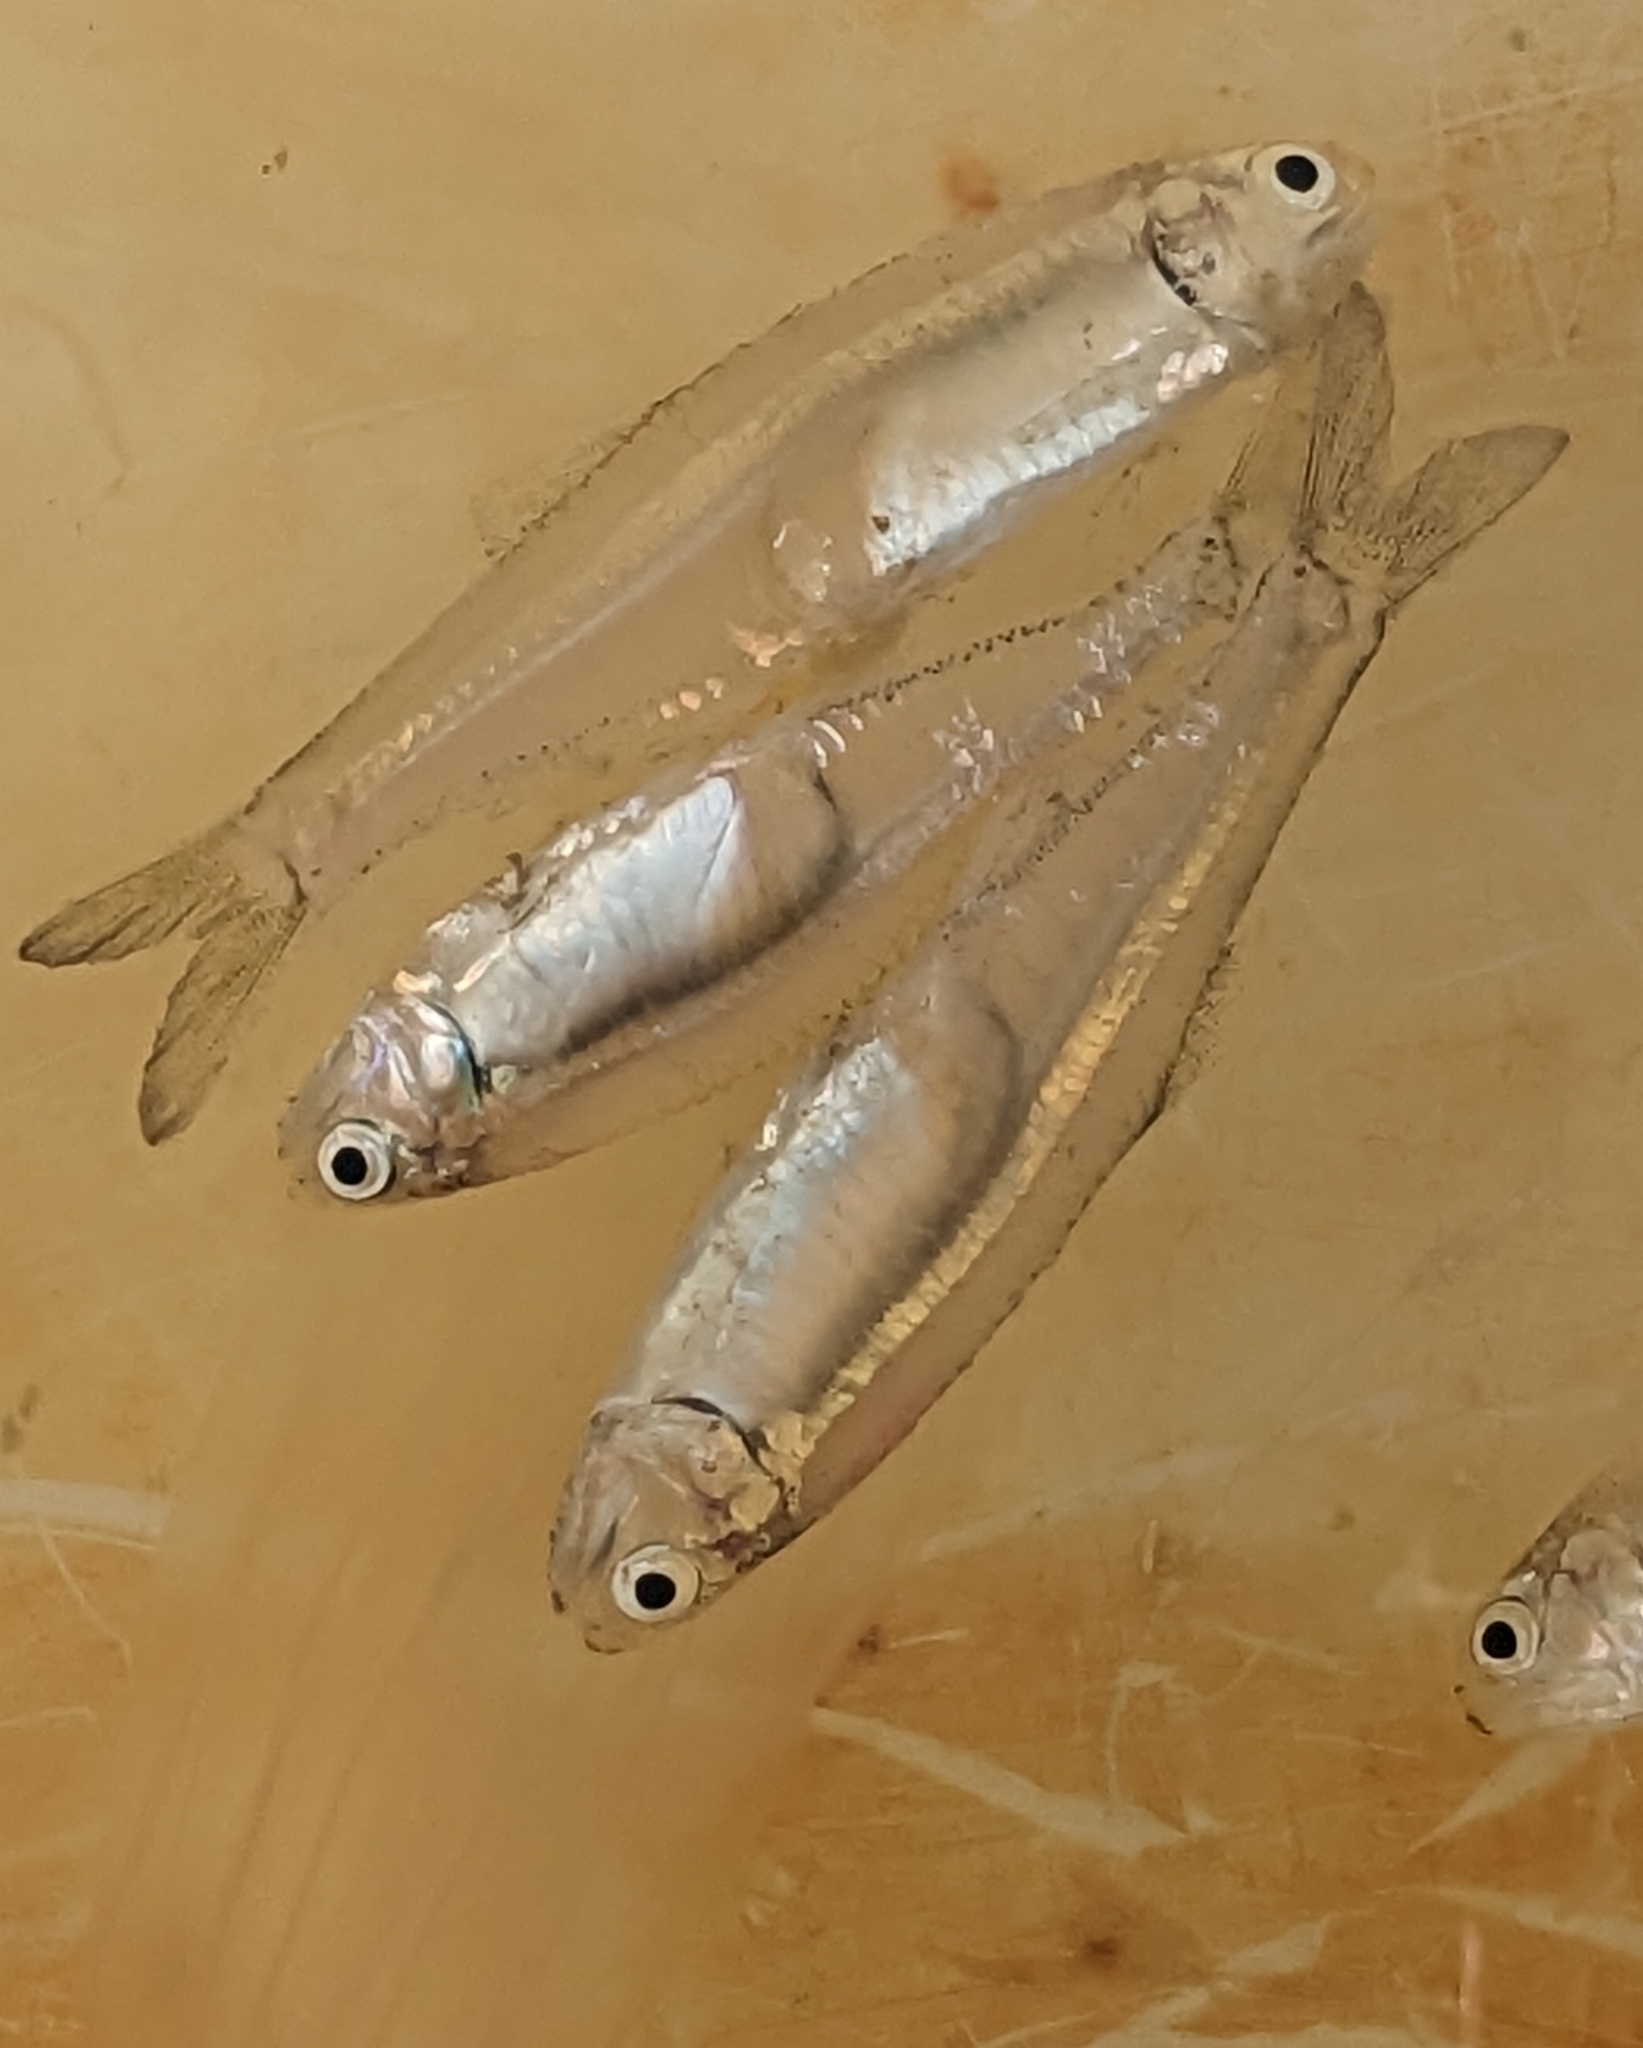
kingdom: Animalia
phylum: Chordata
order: Clupeiformes
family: Engraulidae
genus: Anchoa
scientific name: Anchoa mitchilli
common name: Bay anchovy
